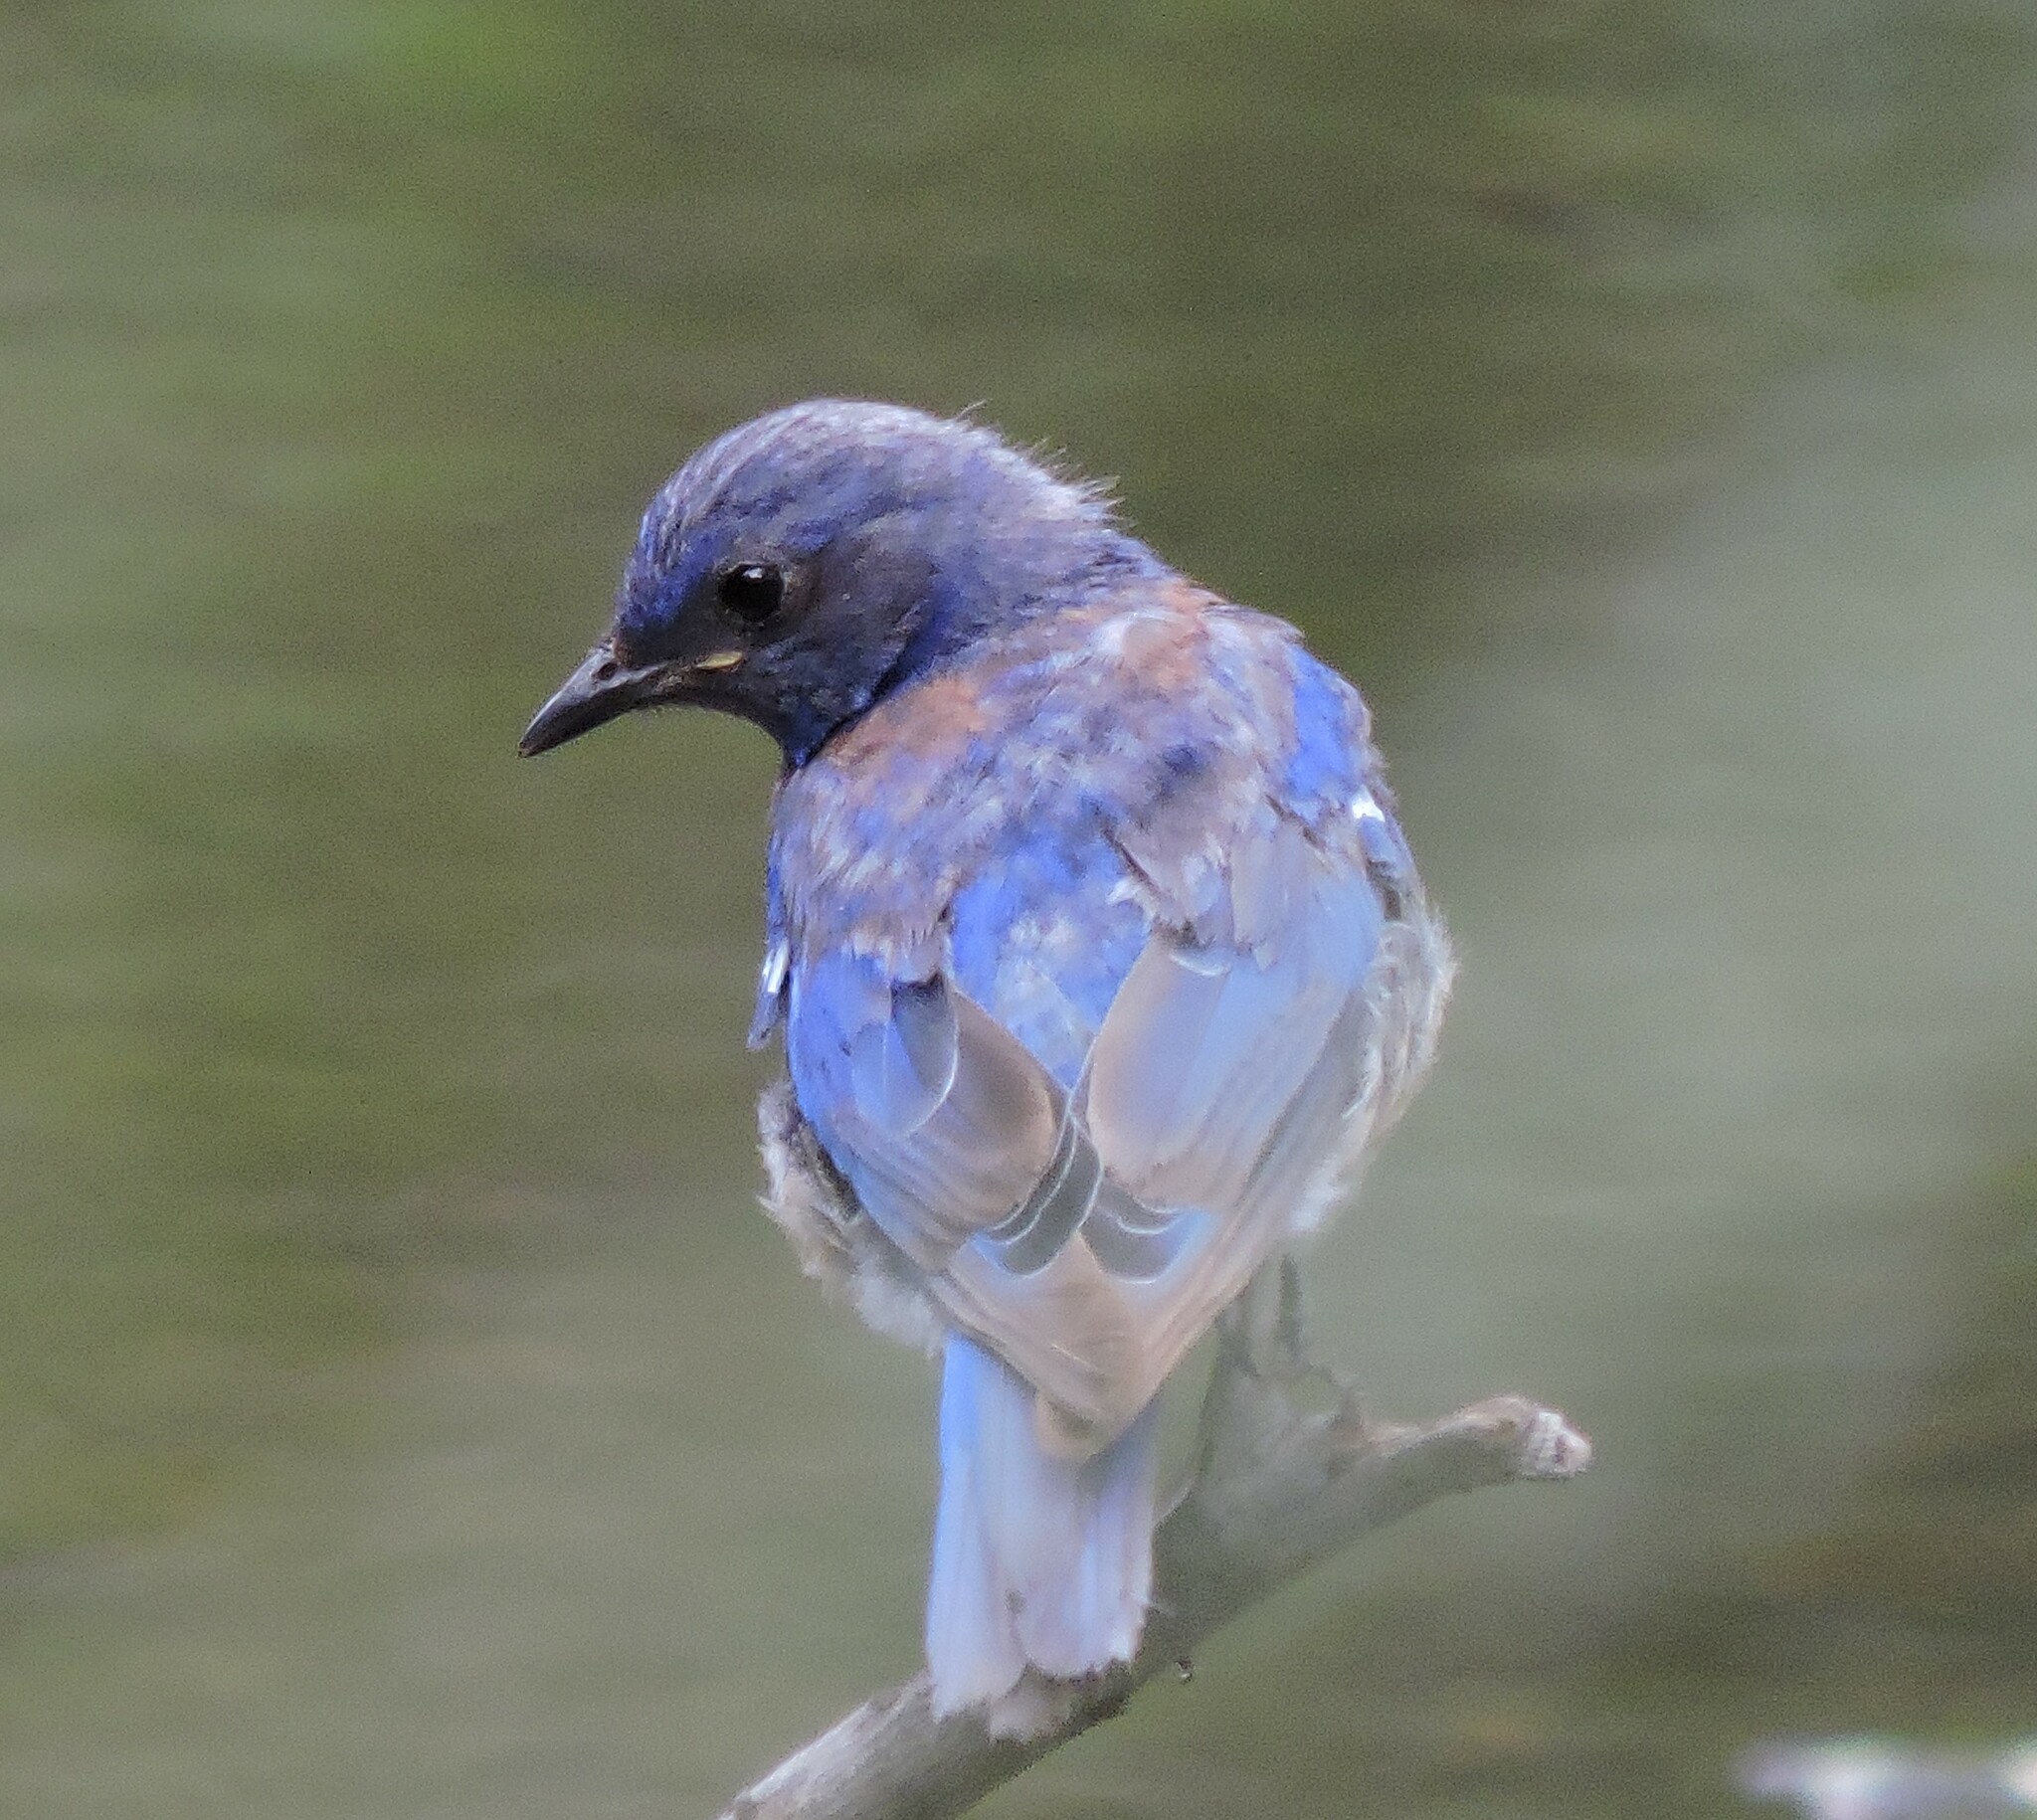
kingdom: Animalia
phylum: Chordata
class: Aves
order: Passeriformes
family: Turdidae
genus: Sialia
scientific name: Sialia mexicana
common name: Western bluebird
